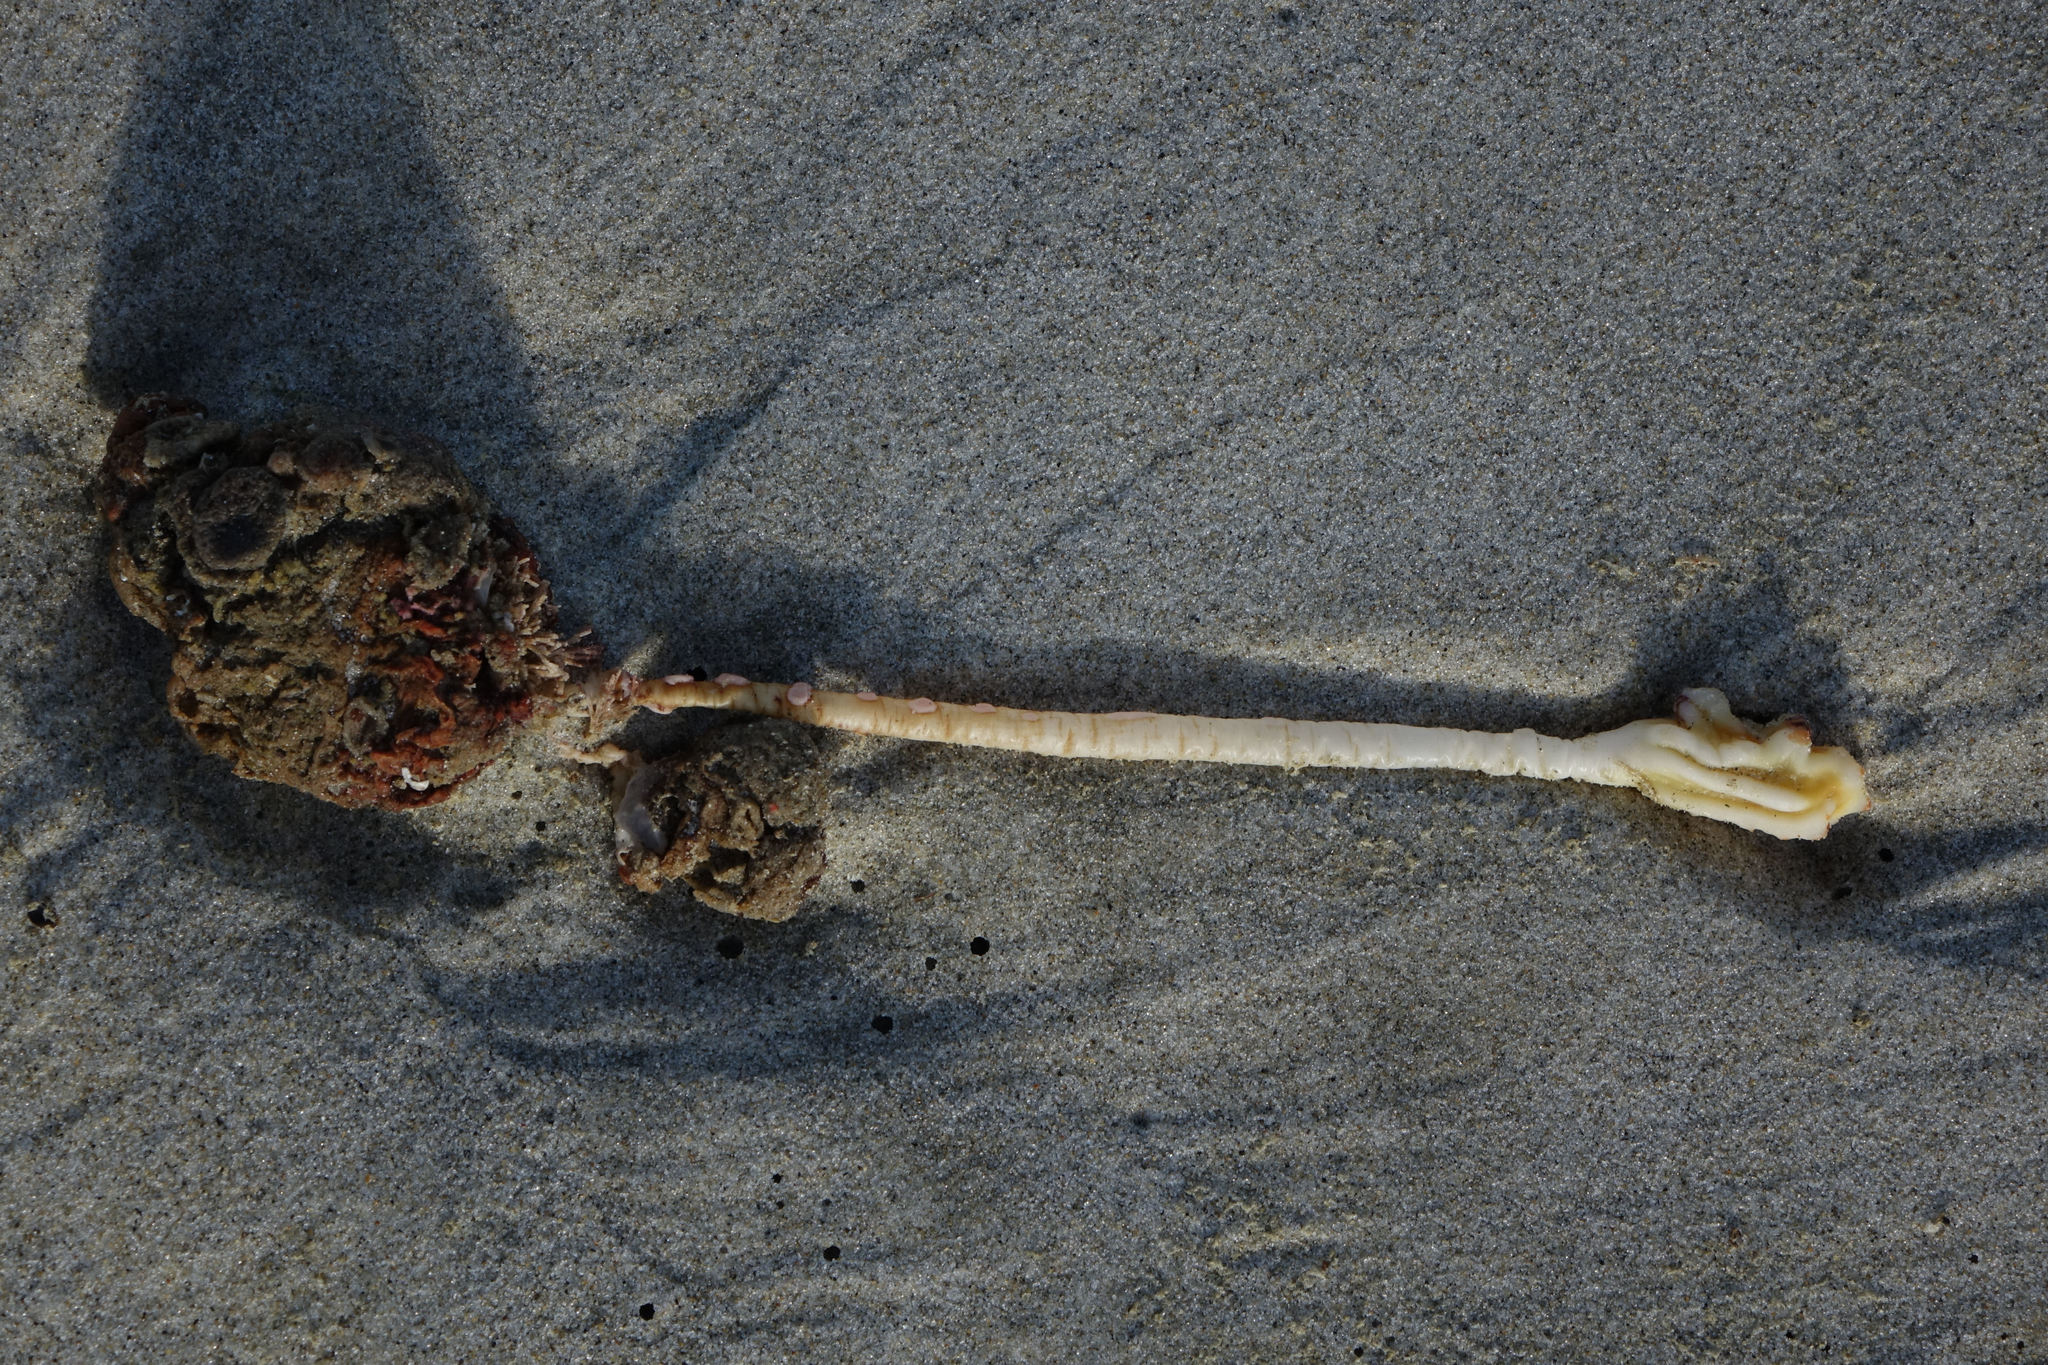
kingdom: Animalia
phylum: Chordata
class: Ascidiacea
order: Stolidobranchia
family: Pyuridae
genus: Pyura
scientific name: Pyura pachydermatina
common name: Sea tulip
